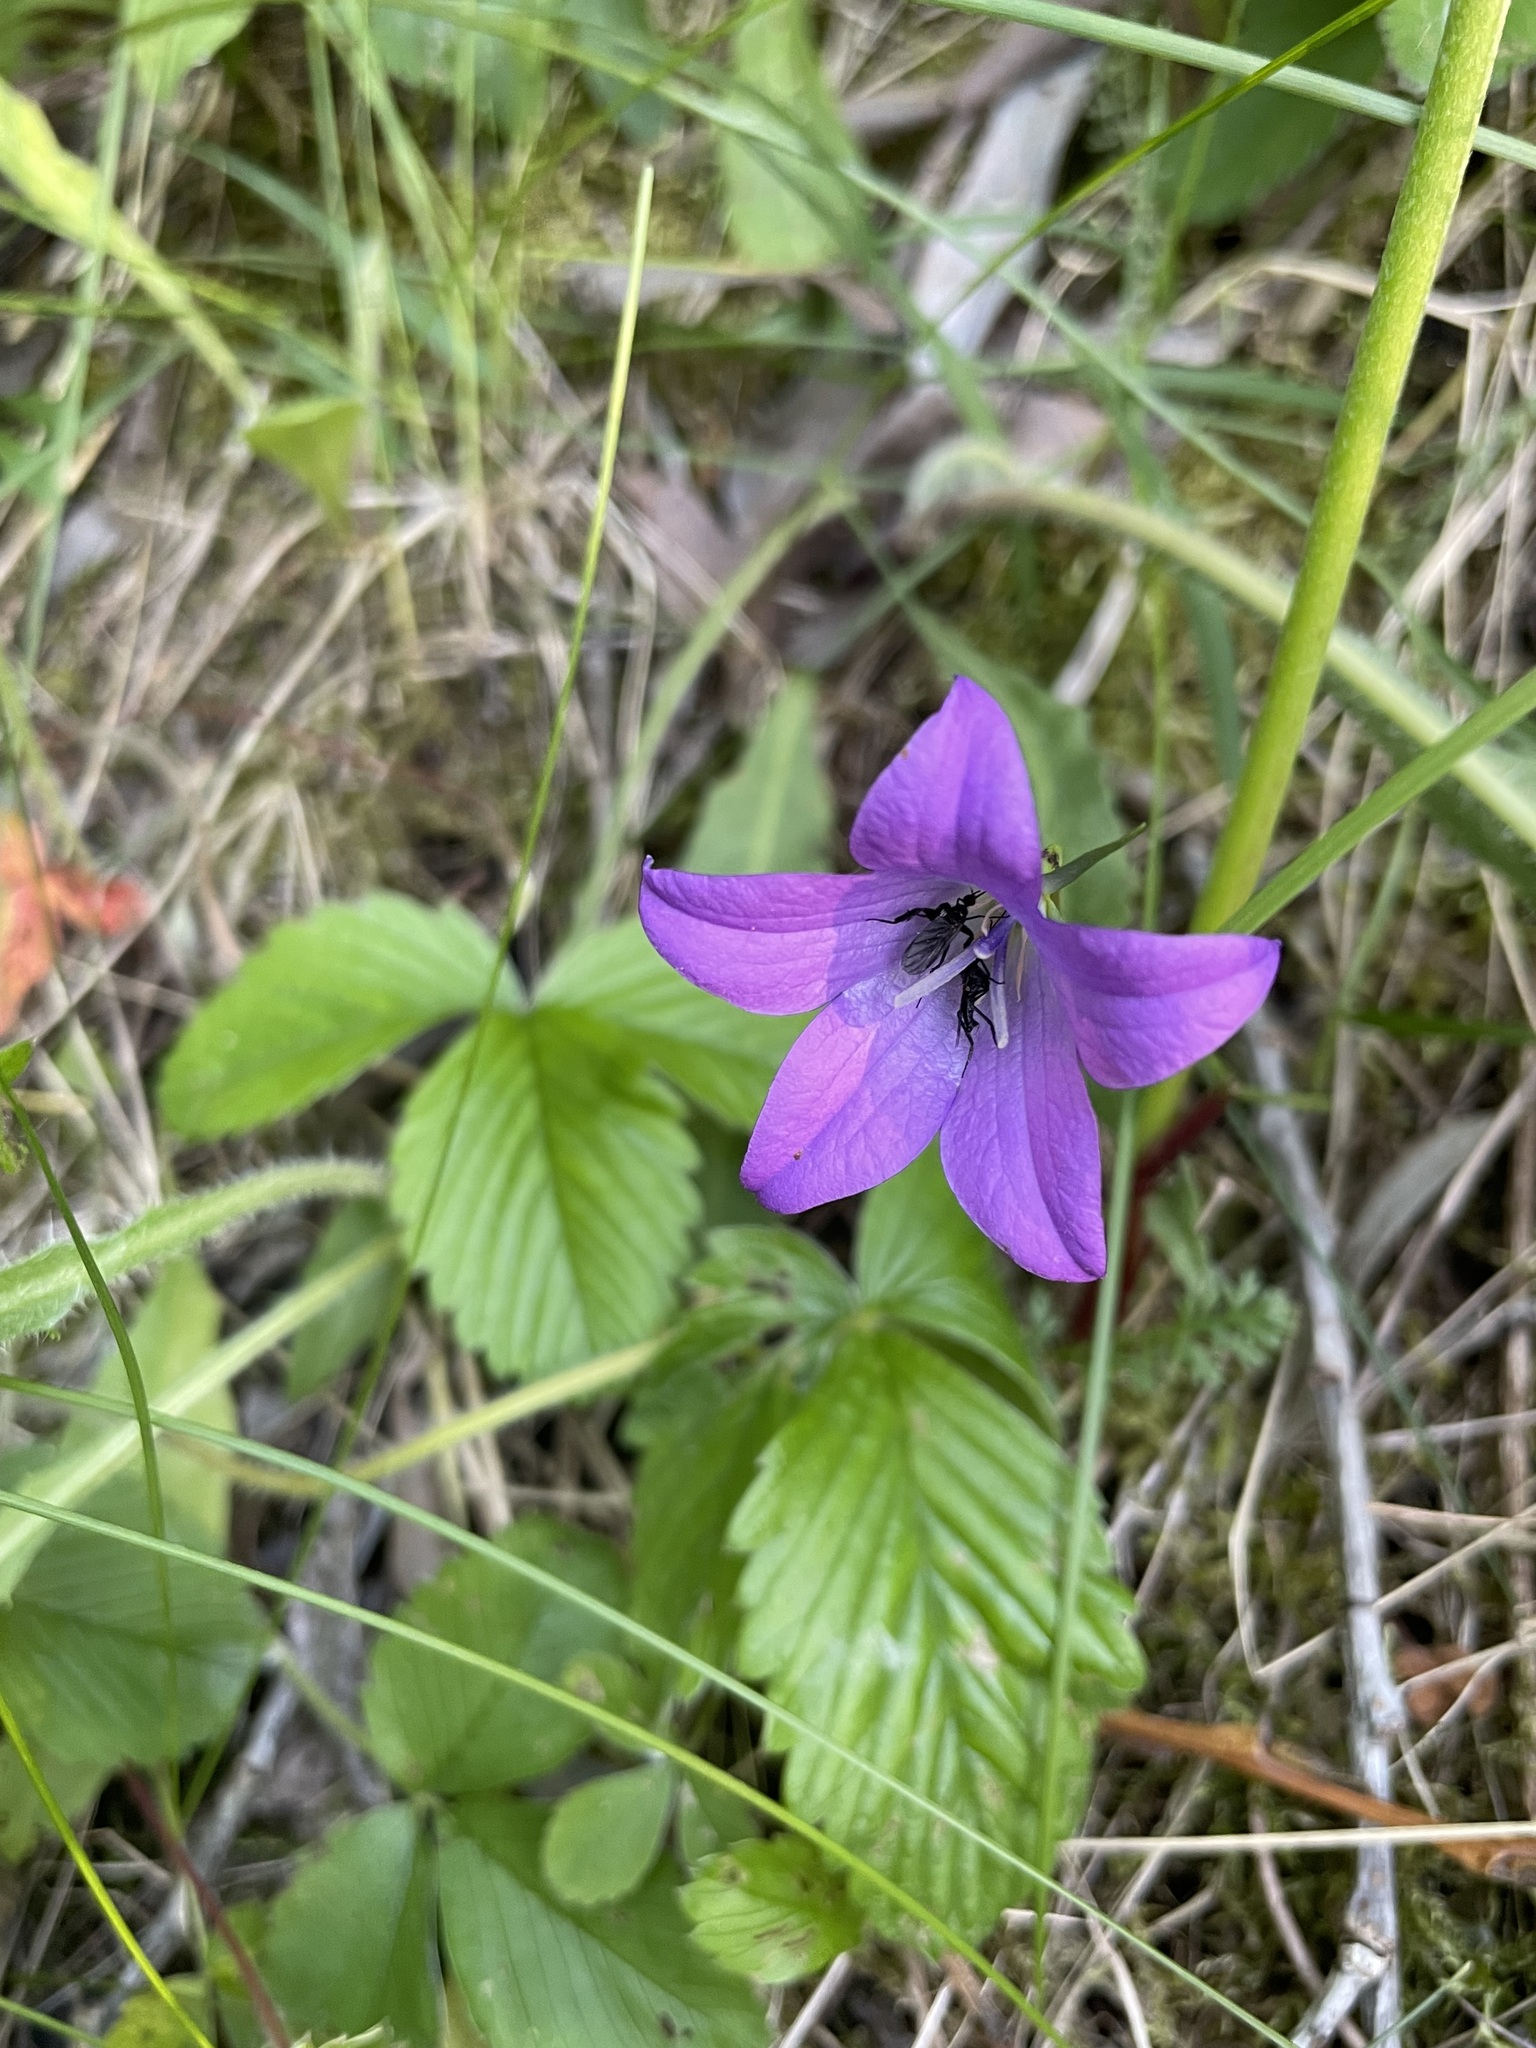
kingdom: Plantae
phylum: Tracheophyta
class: Magnoliopsida
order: Asterales
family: Campanulaceae
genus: Campanula
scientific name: Campanula patula
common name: Spreading bellflower
